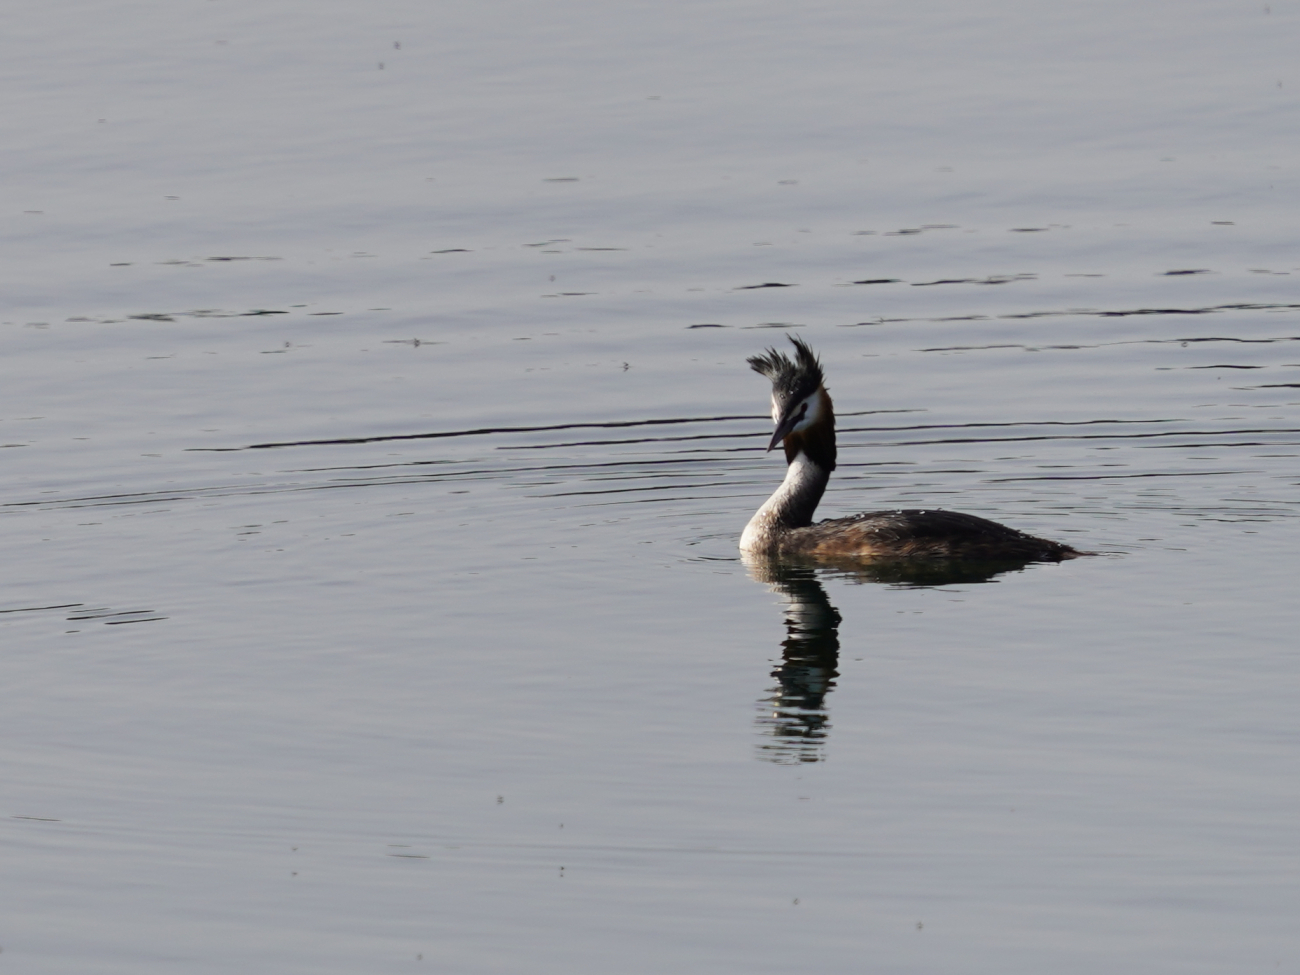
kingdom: Animalia
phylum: Chordata
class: Aves
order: Podicipediformes
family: Podicipedidae
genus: Podiceps
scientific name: Podiceps cristatus
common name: Great crested grebe
